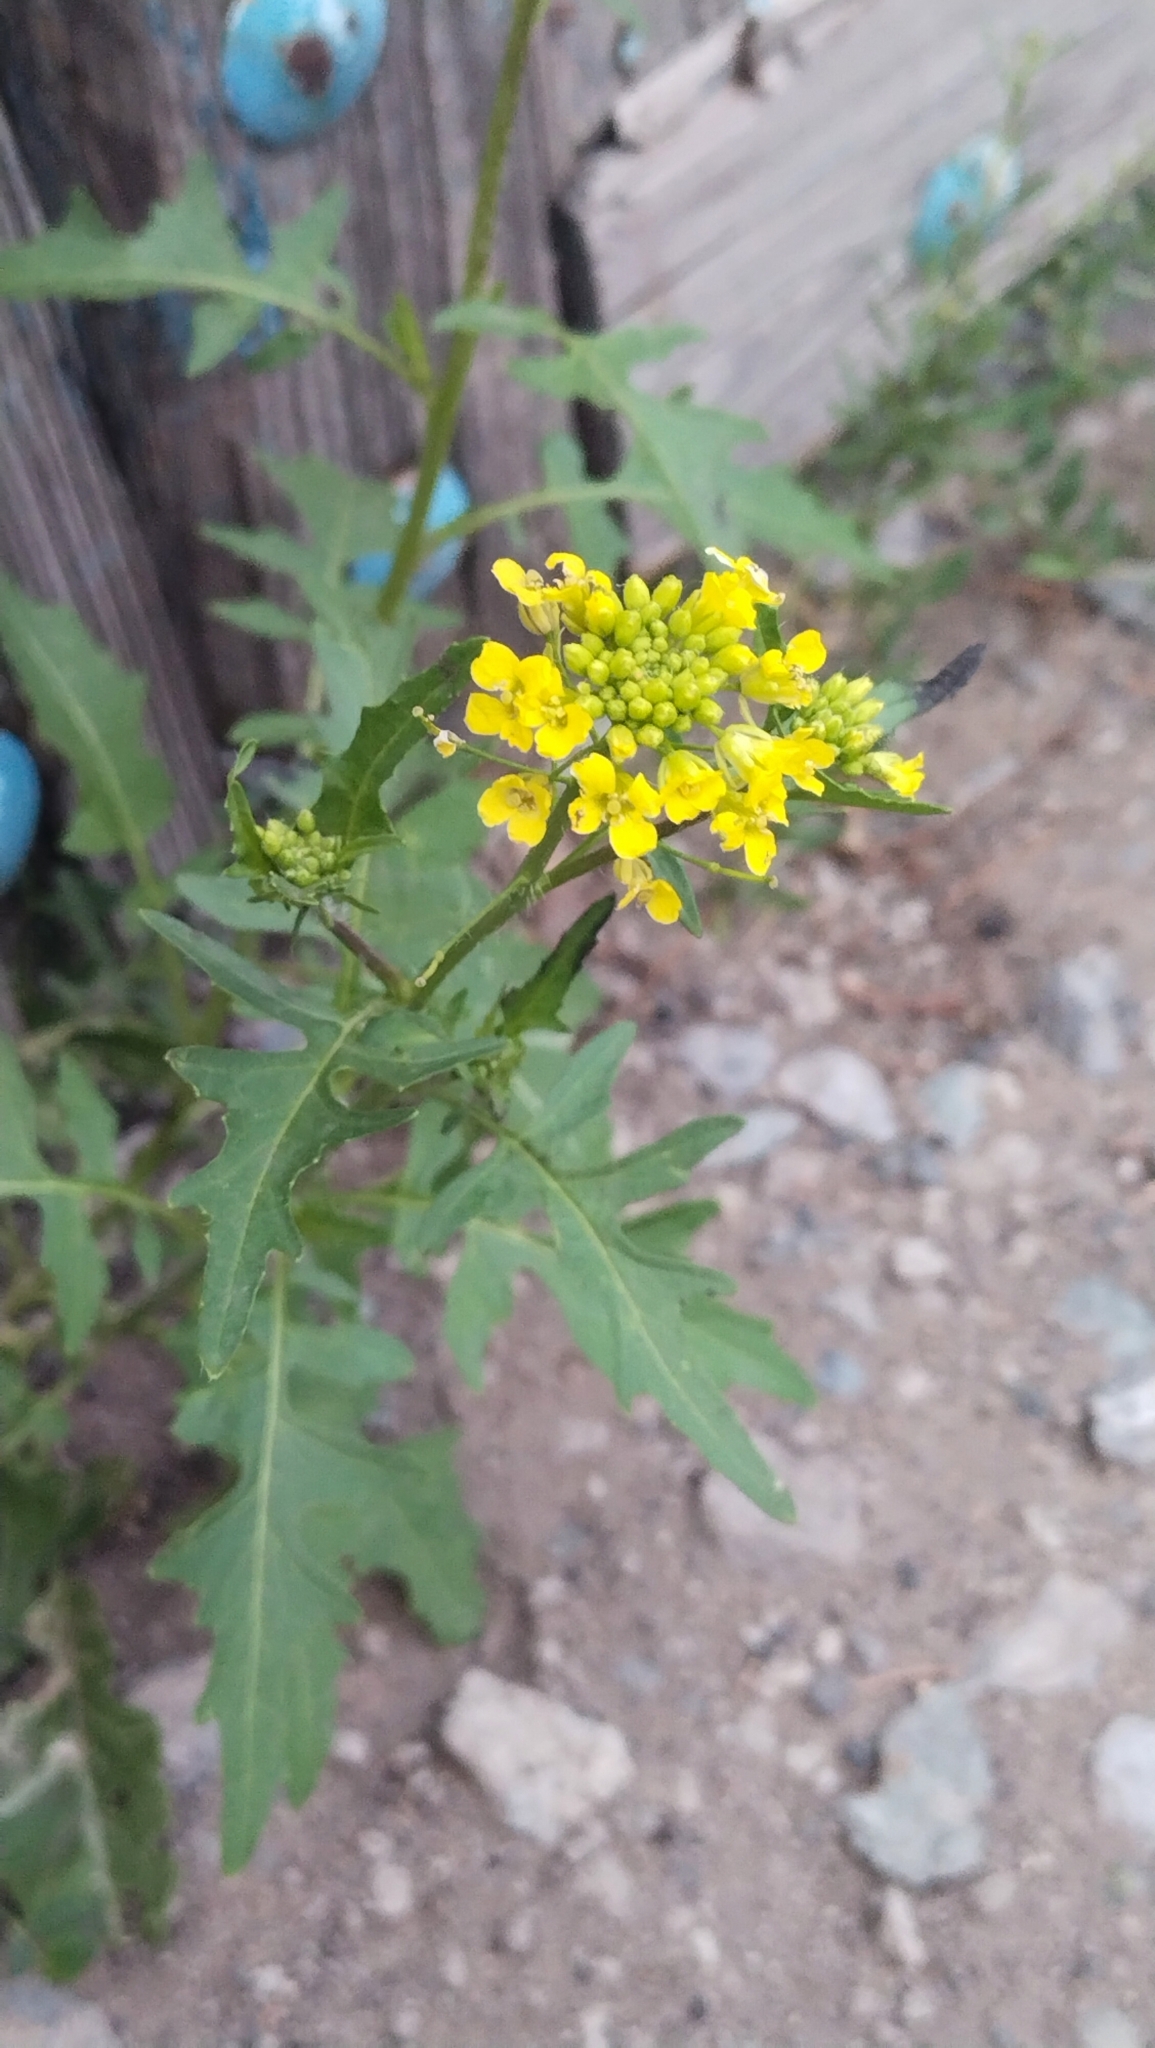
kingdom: Plantae
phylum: Tracheophyta
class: Magnoliopsida
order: Brassicales
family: Brassicaceae
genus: Sisymbrium
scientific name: Sisymbrium loeselii
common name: False london-rocket
